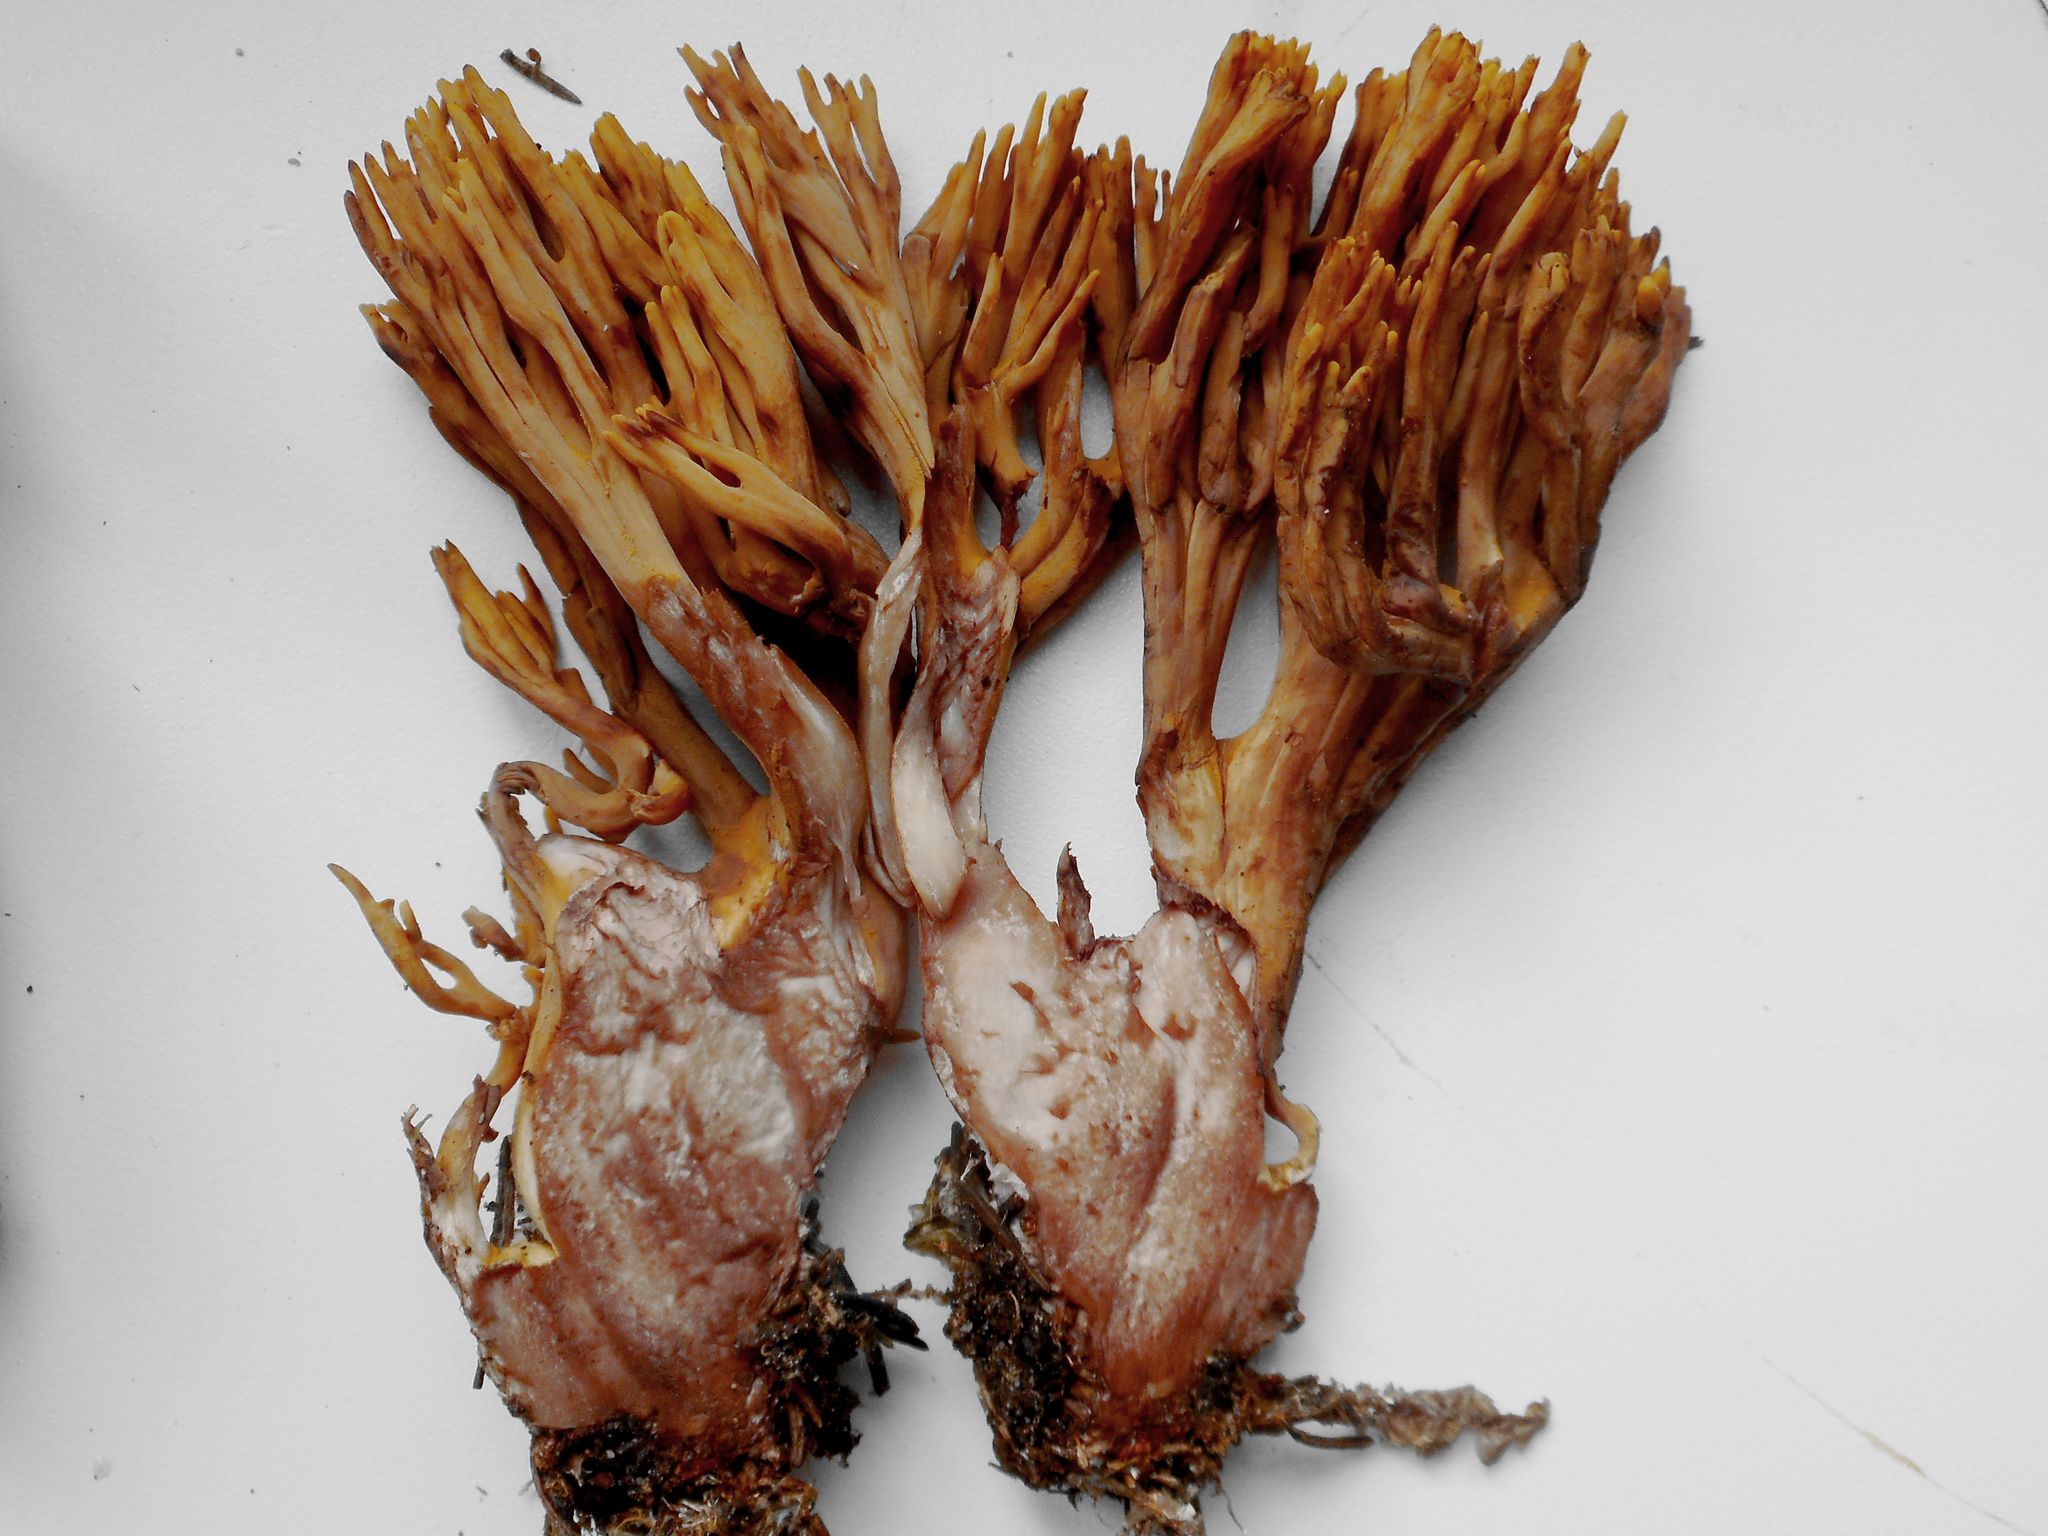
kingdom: Fungi
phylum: Basidiomycota
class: Agaricomycetes
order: Gomphales
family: Gomphaceae
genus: Ramaria
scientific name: Ramaria testaceoflava
